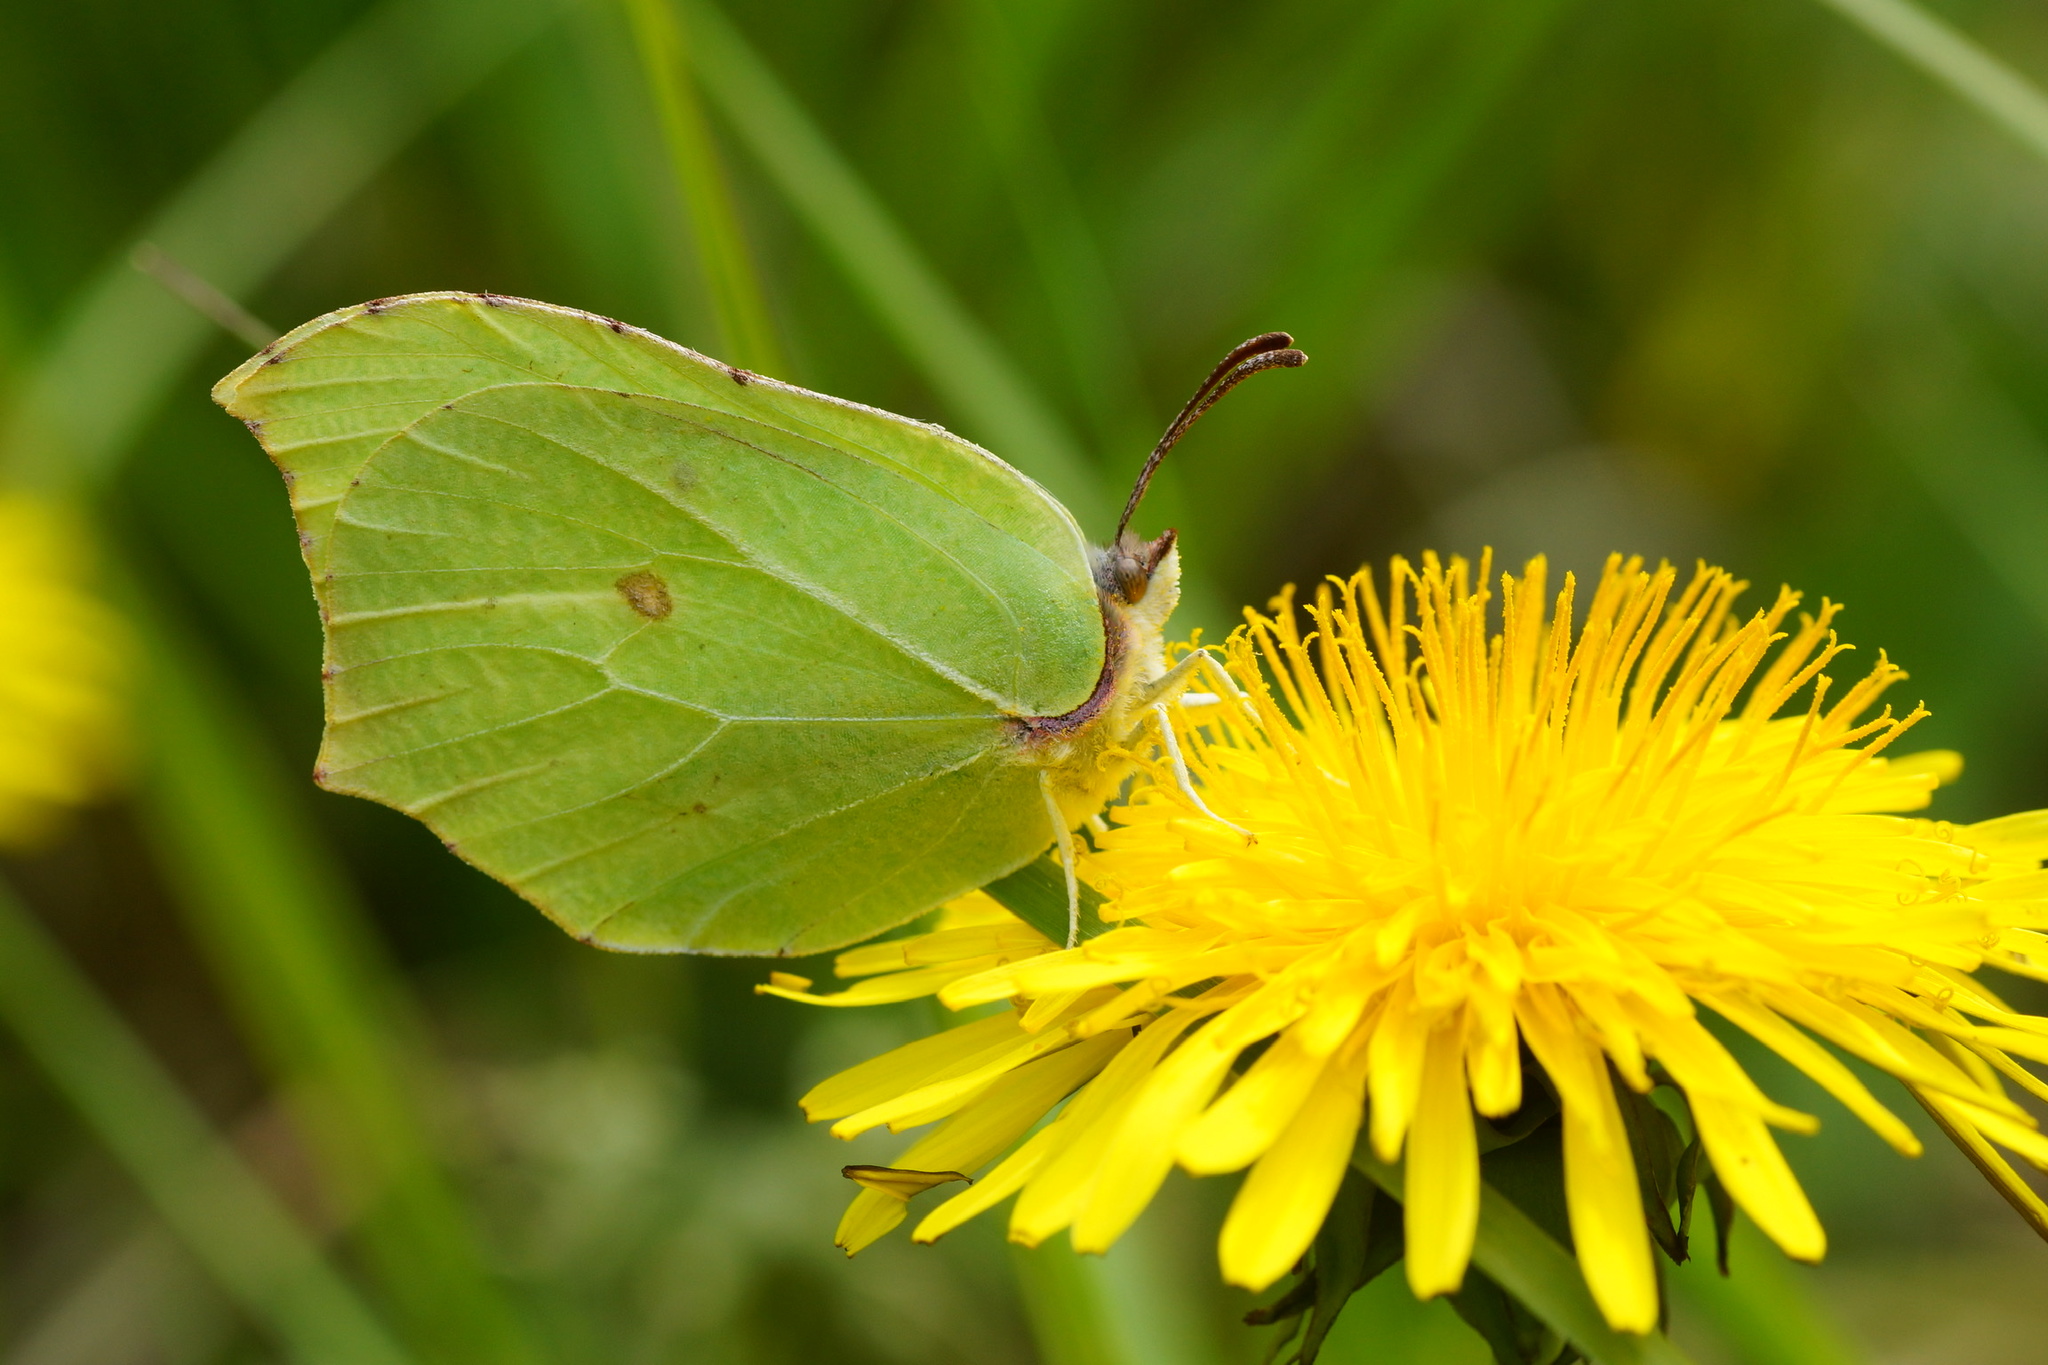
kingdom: Animalia
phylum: Arthropoda
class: Insecta
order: Lepidoptera
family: Pieridae
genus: Gonepteryx
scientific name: Gonepteryx rhamni
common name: Brimstone
